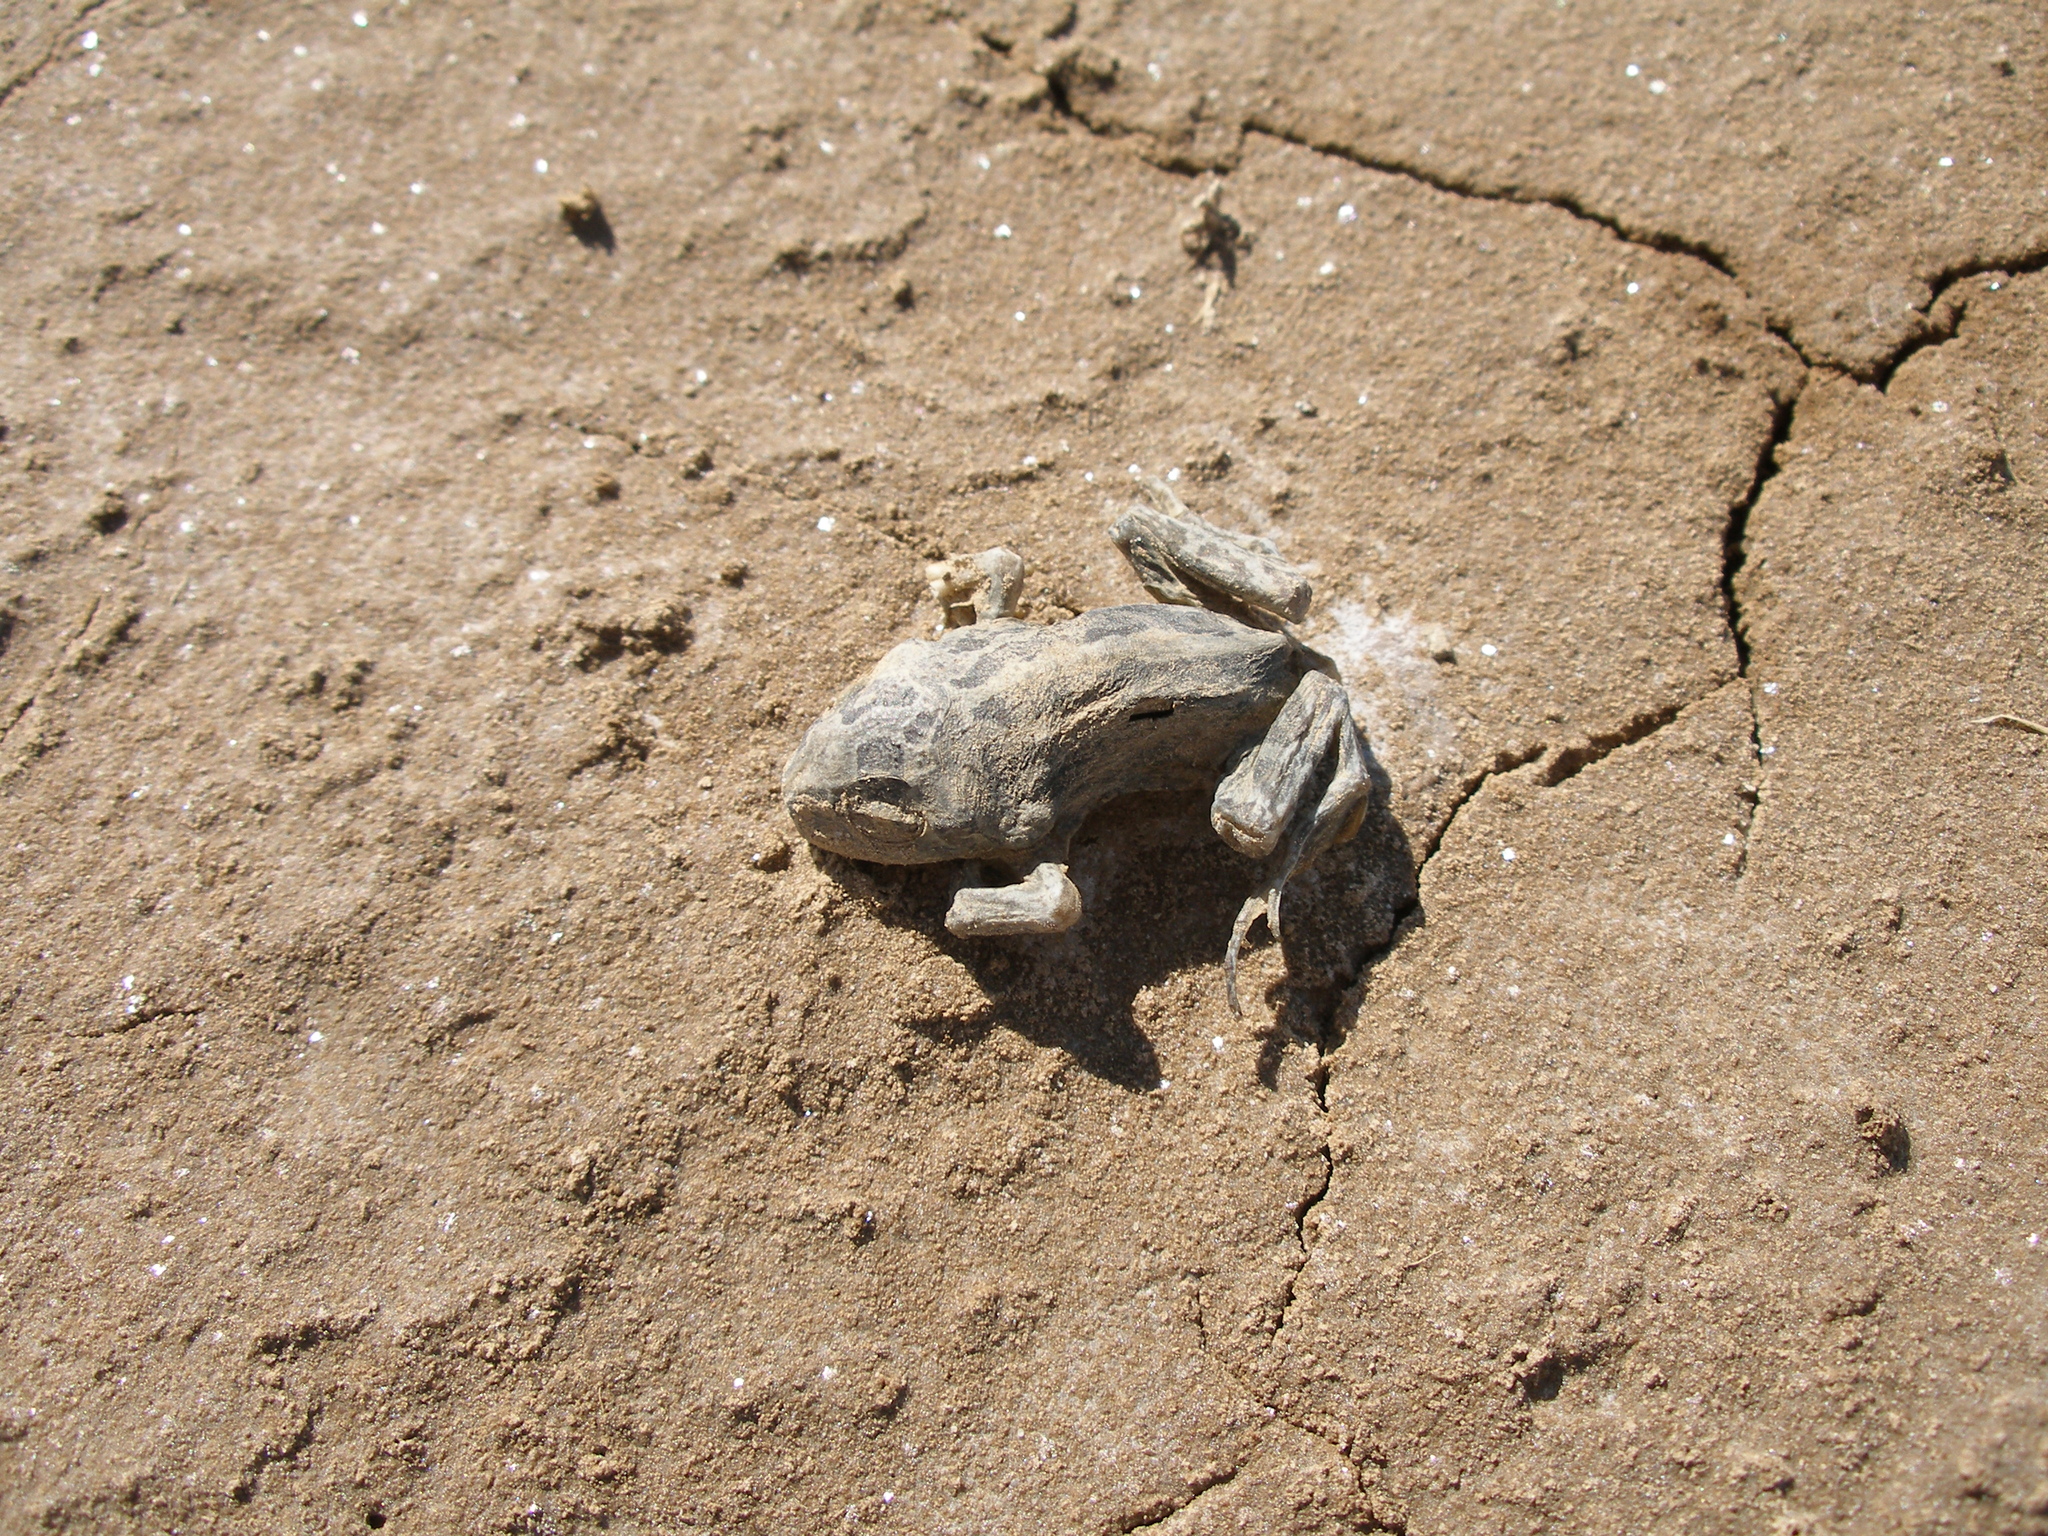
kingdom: Animalia
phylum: Chordata
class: Amphibia
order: Anura
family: Pelobatidae
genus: Pelobates
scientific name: Pelobates vespertinus
